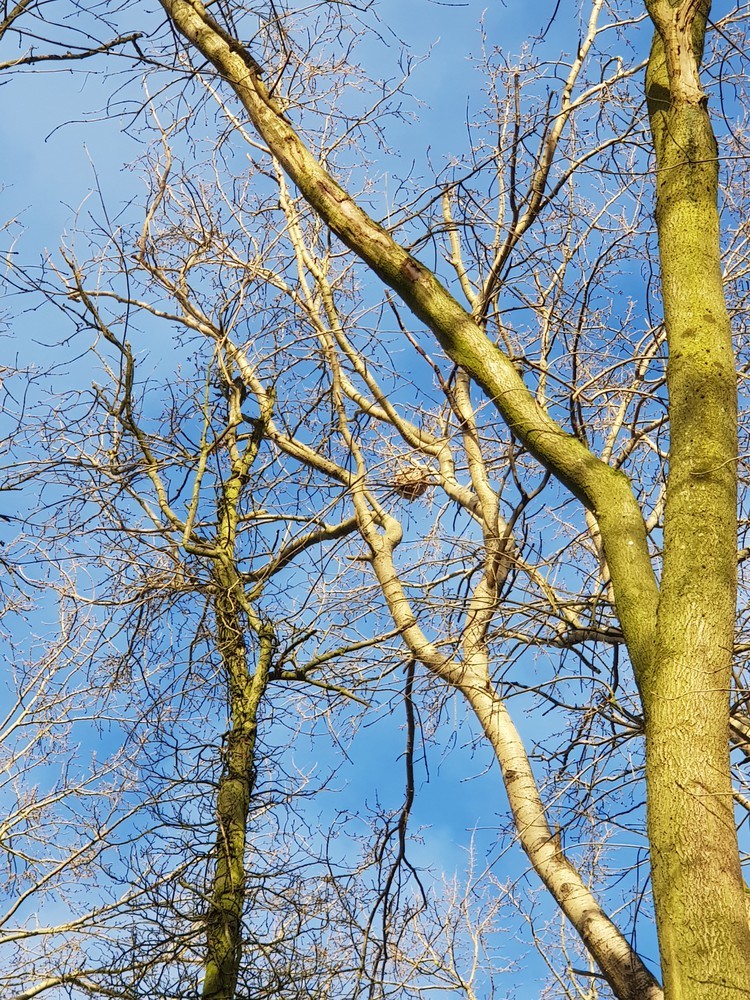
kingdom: Animalia
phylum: Arthropoda
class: Insecta
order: Hymenoptera
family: Vespidae
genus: Vespa
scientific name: Vespa velutina
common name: Asian hornet
